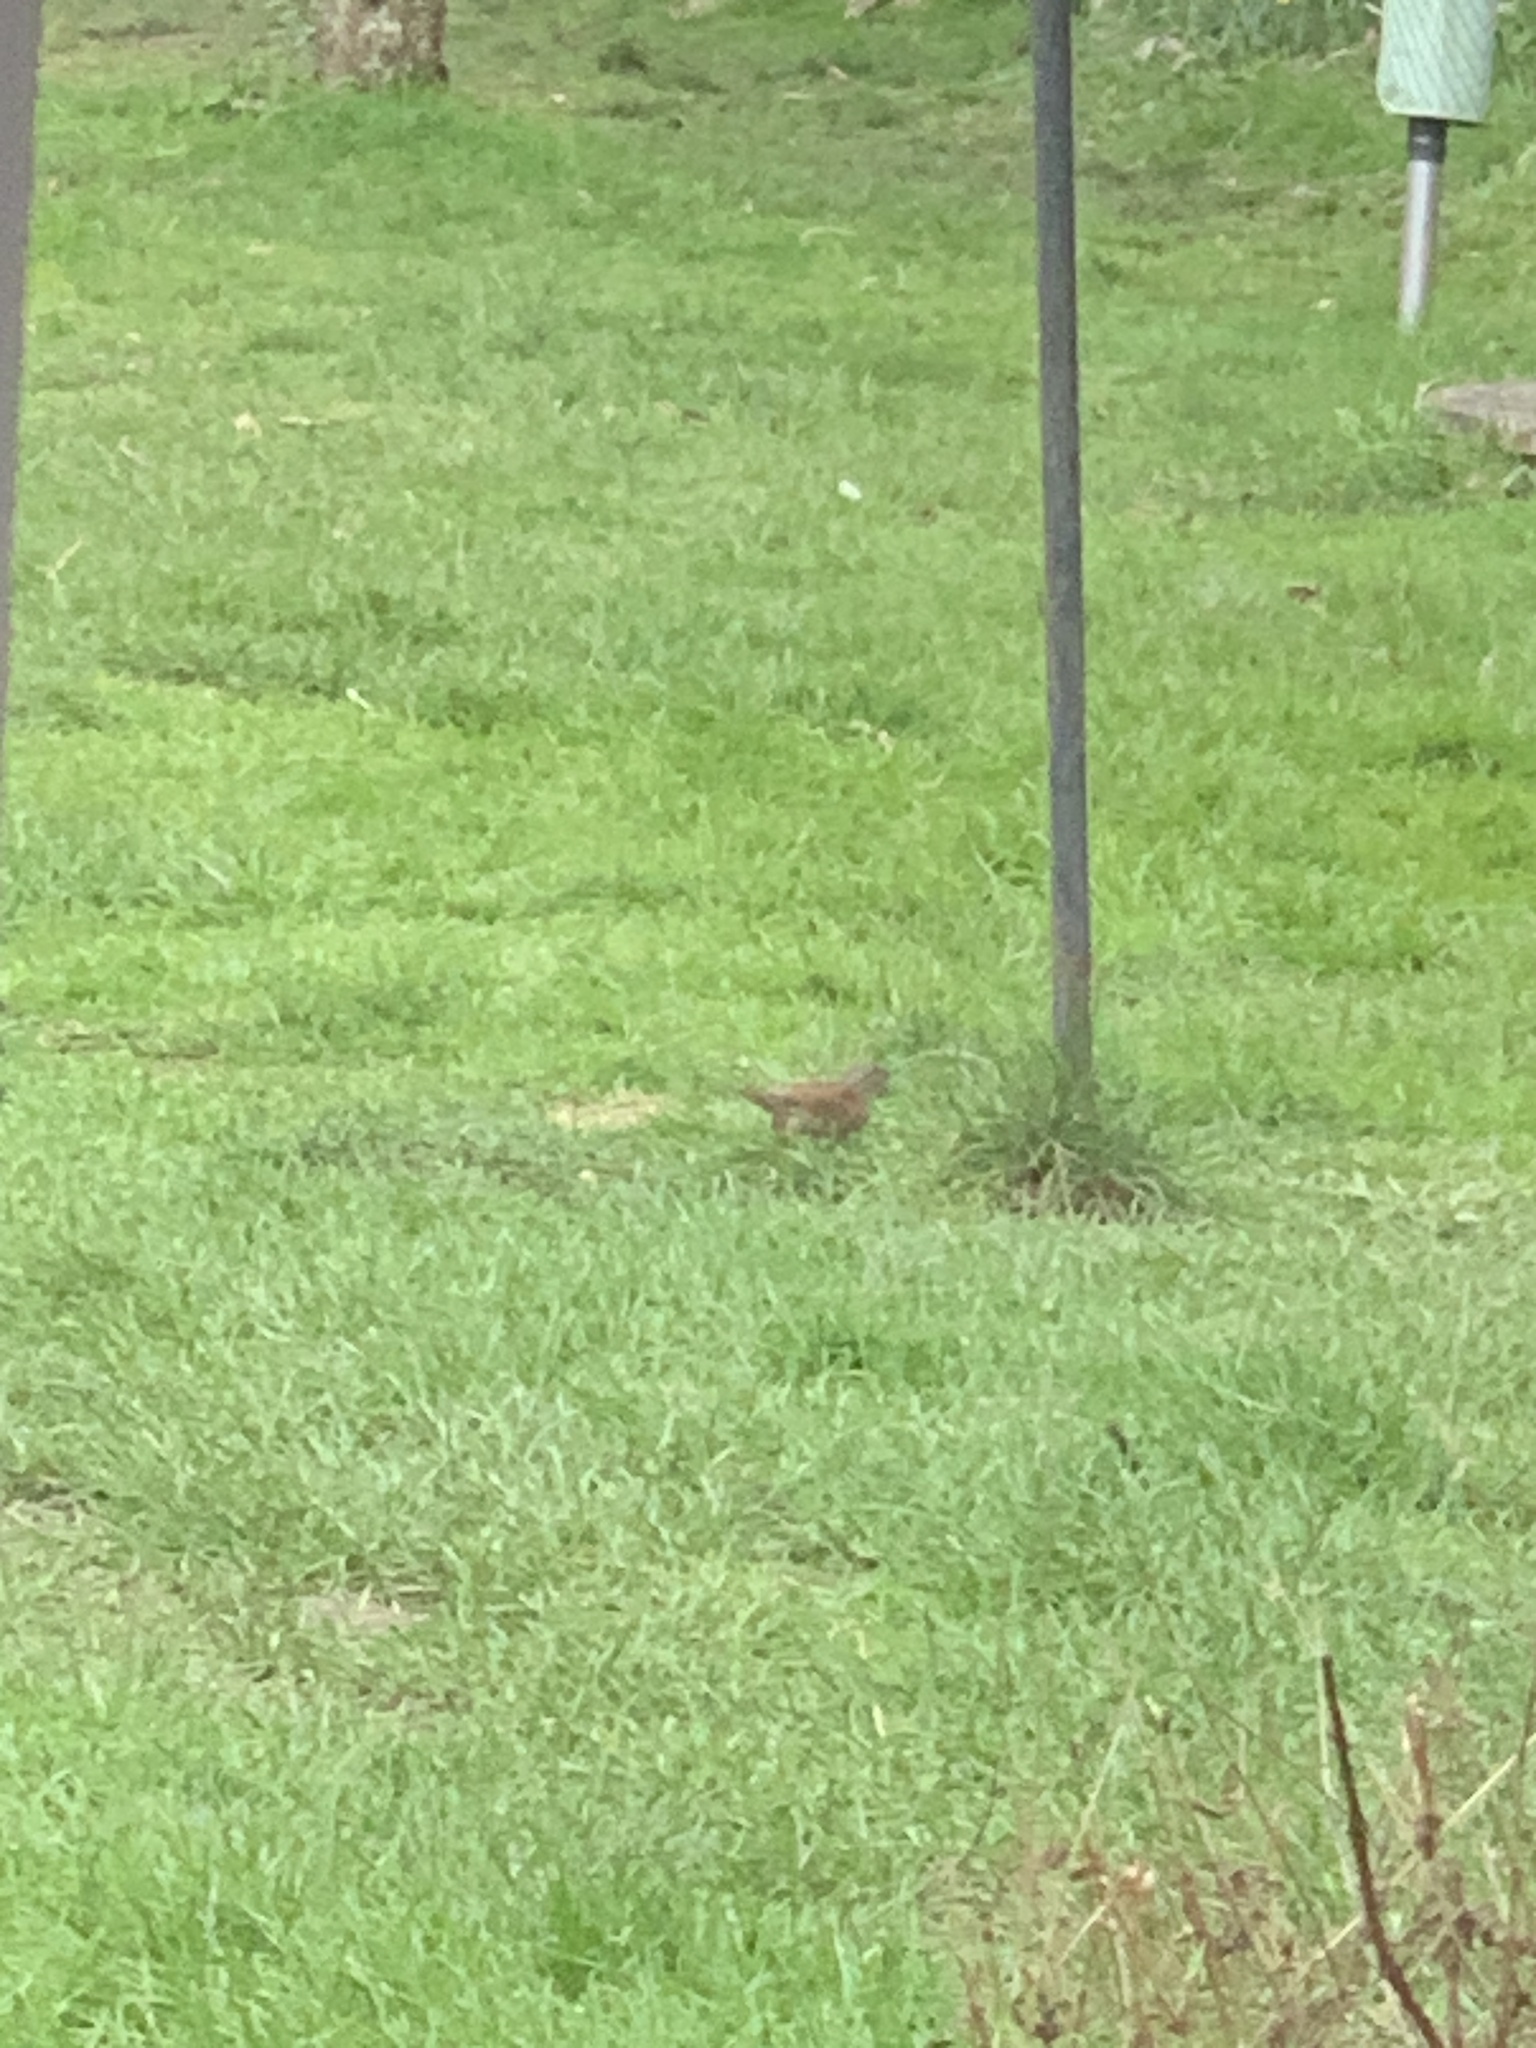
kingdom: Animalia
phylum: Chordata
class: Aves
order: Passeriformes
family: Prunellidae
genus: Prunella
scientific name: Prunella modularis
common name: Dunnock
